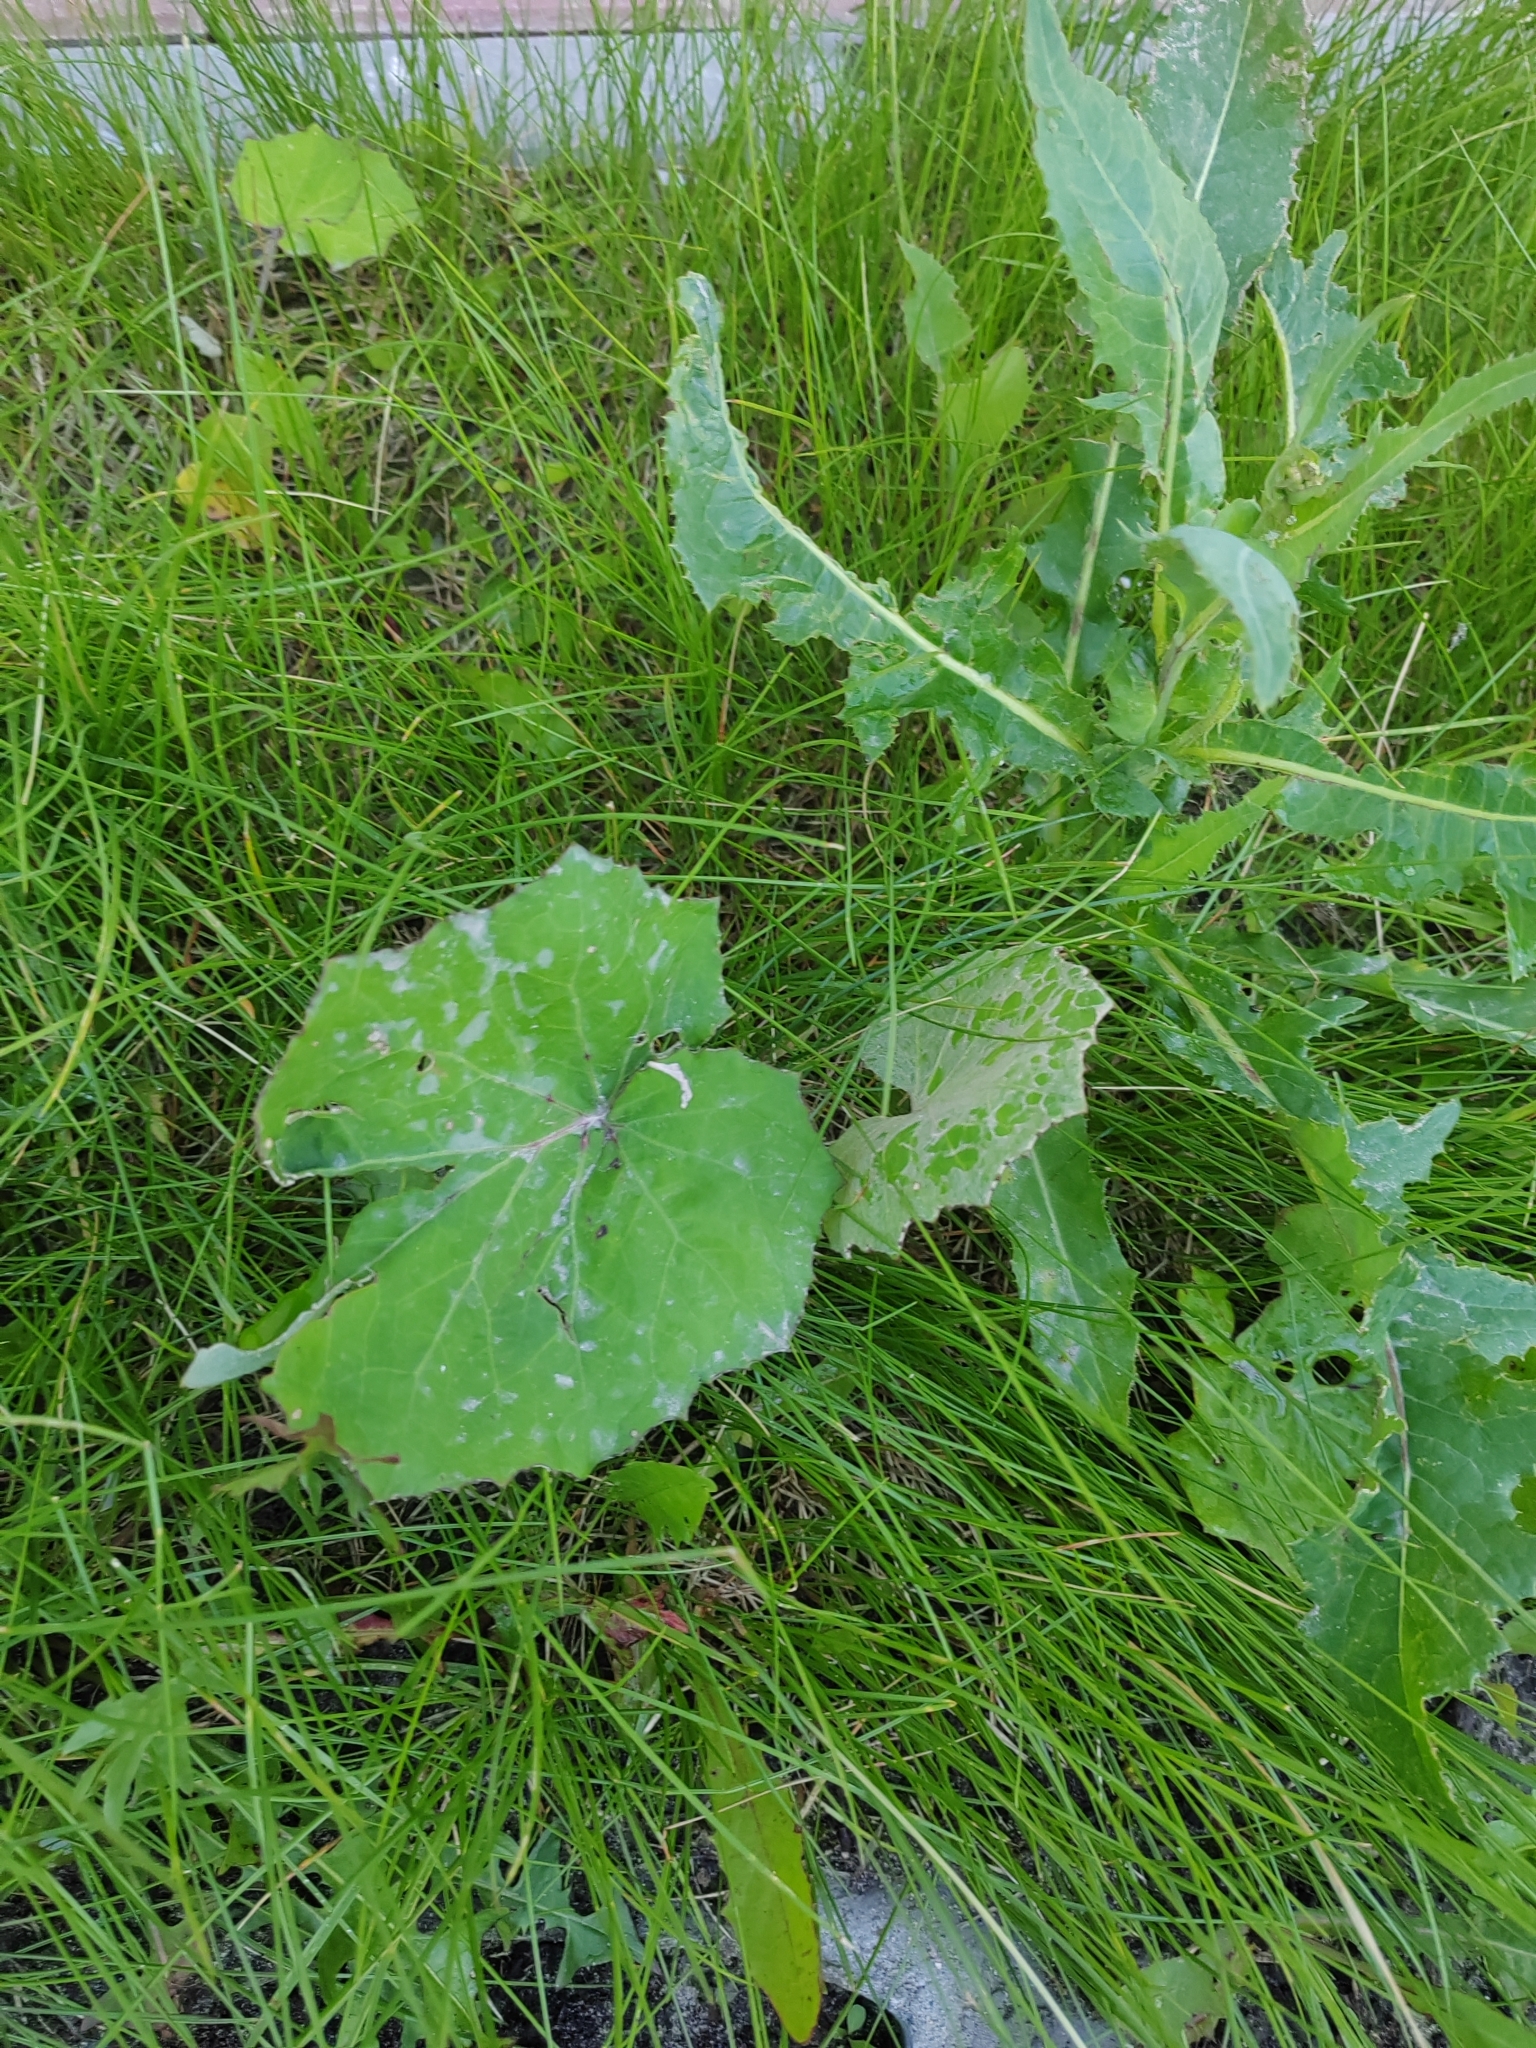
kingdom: Plantae
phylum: Tracheophyta
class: Magnoliopsida
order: Asterales
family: Asteraceae
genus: Tussilago
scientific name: Tussilago farfara
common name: Coltsfoot
